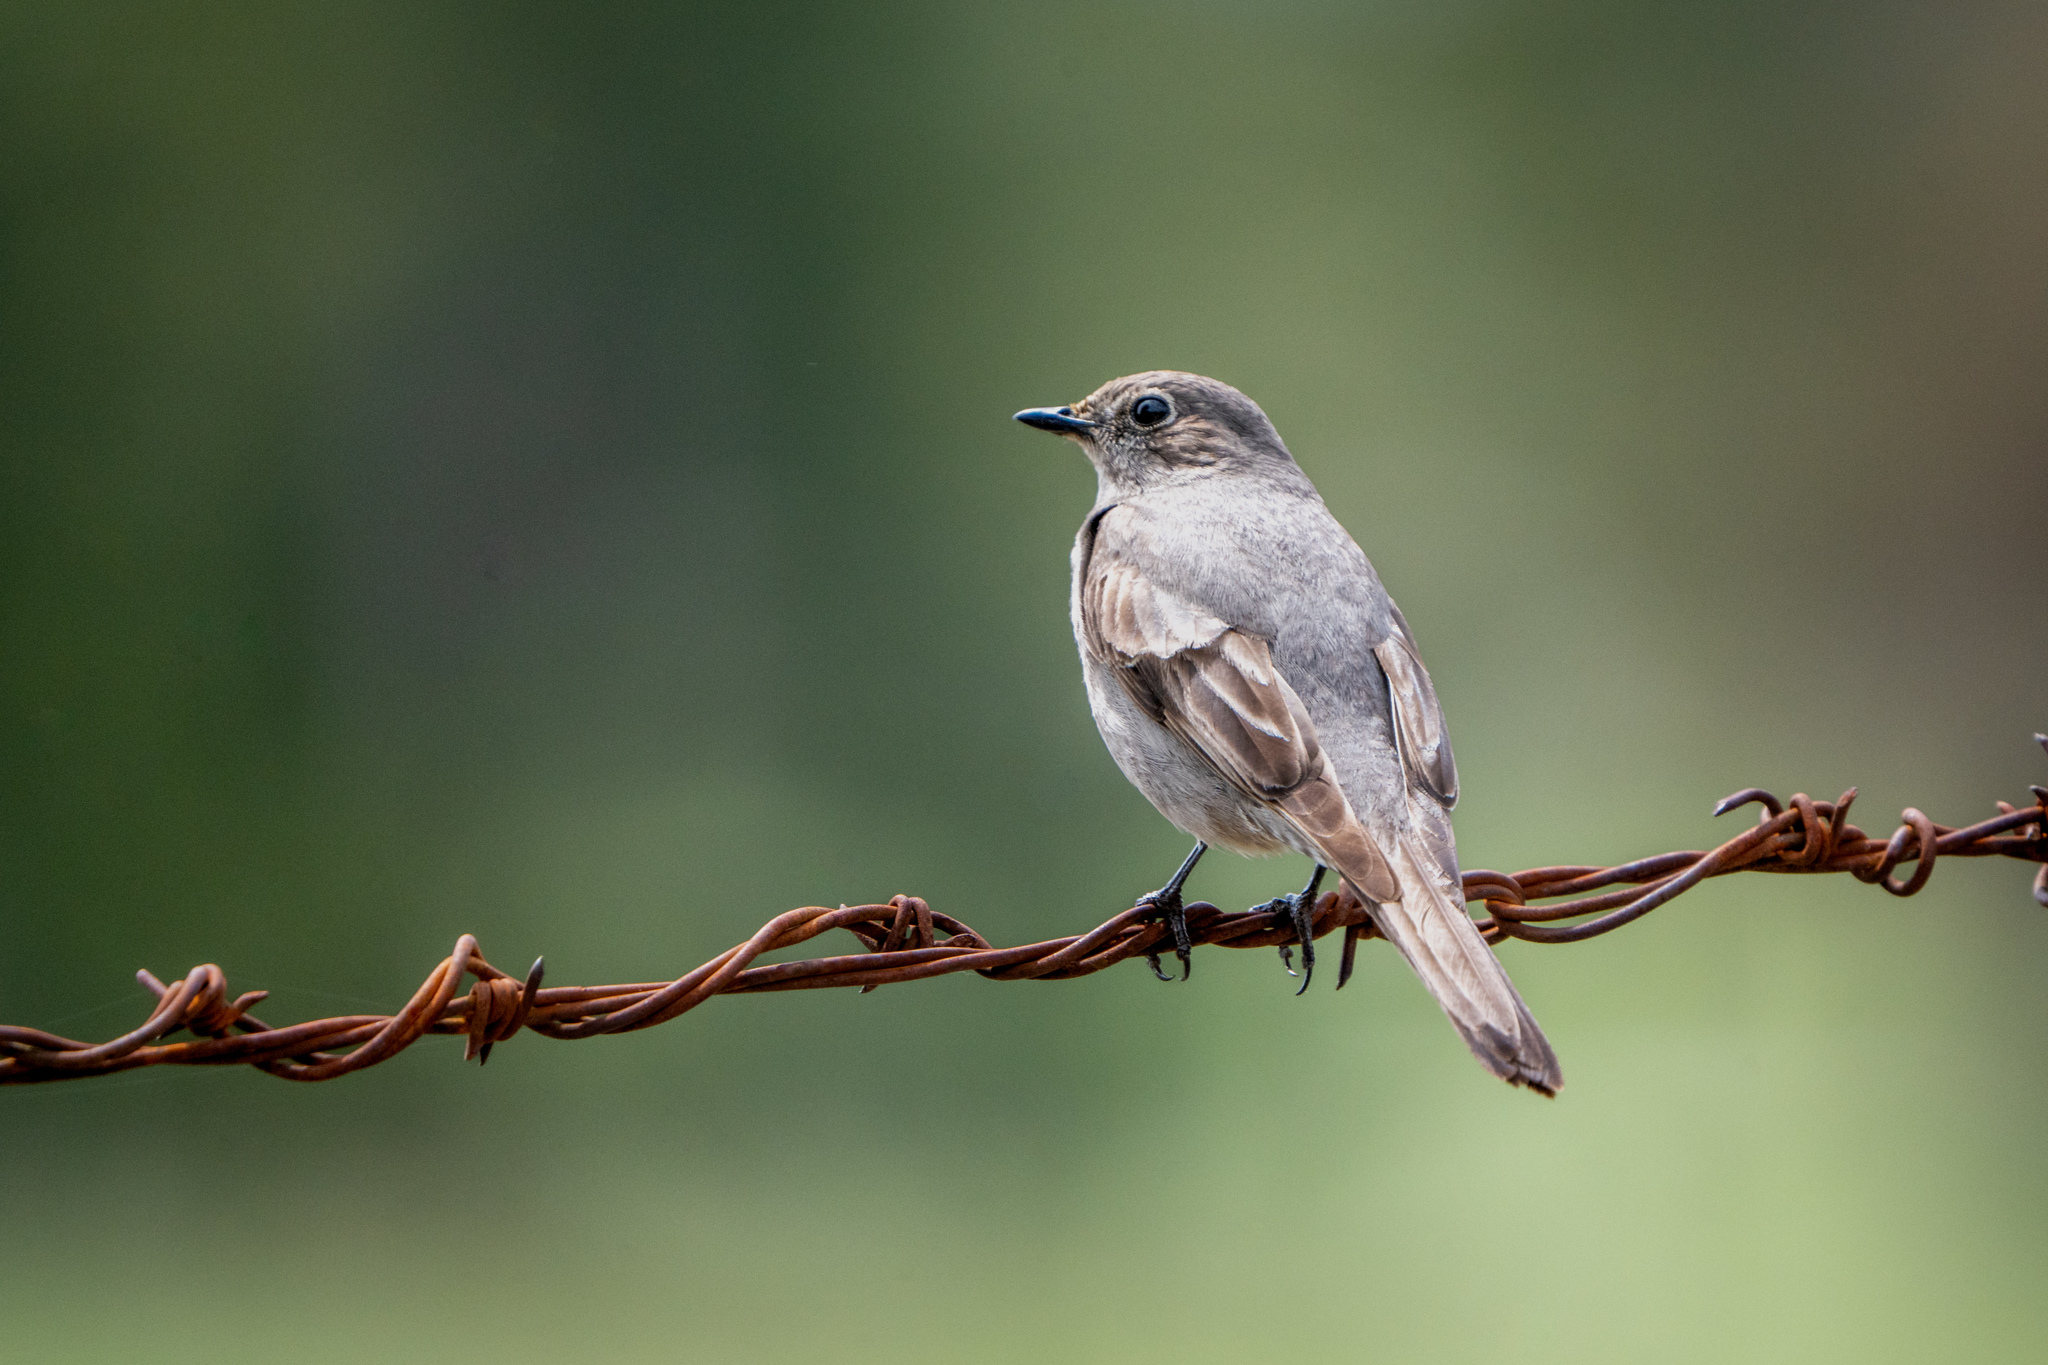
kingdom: Animalia
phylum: Chordata
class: Aves
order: Passeriformes
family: Turdidae
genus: Myadestes
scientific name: Myadestes townsendi
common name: Townsend's solitaire
